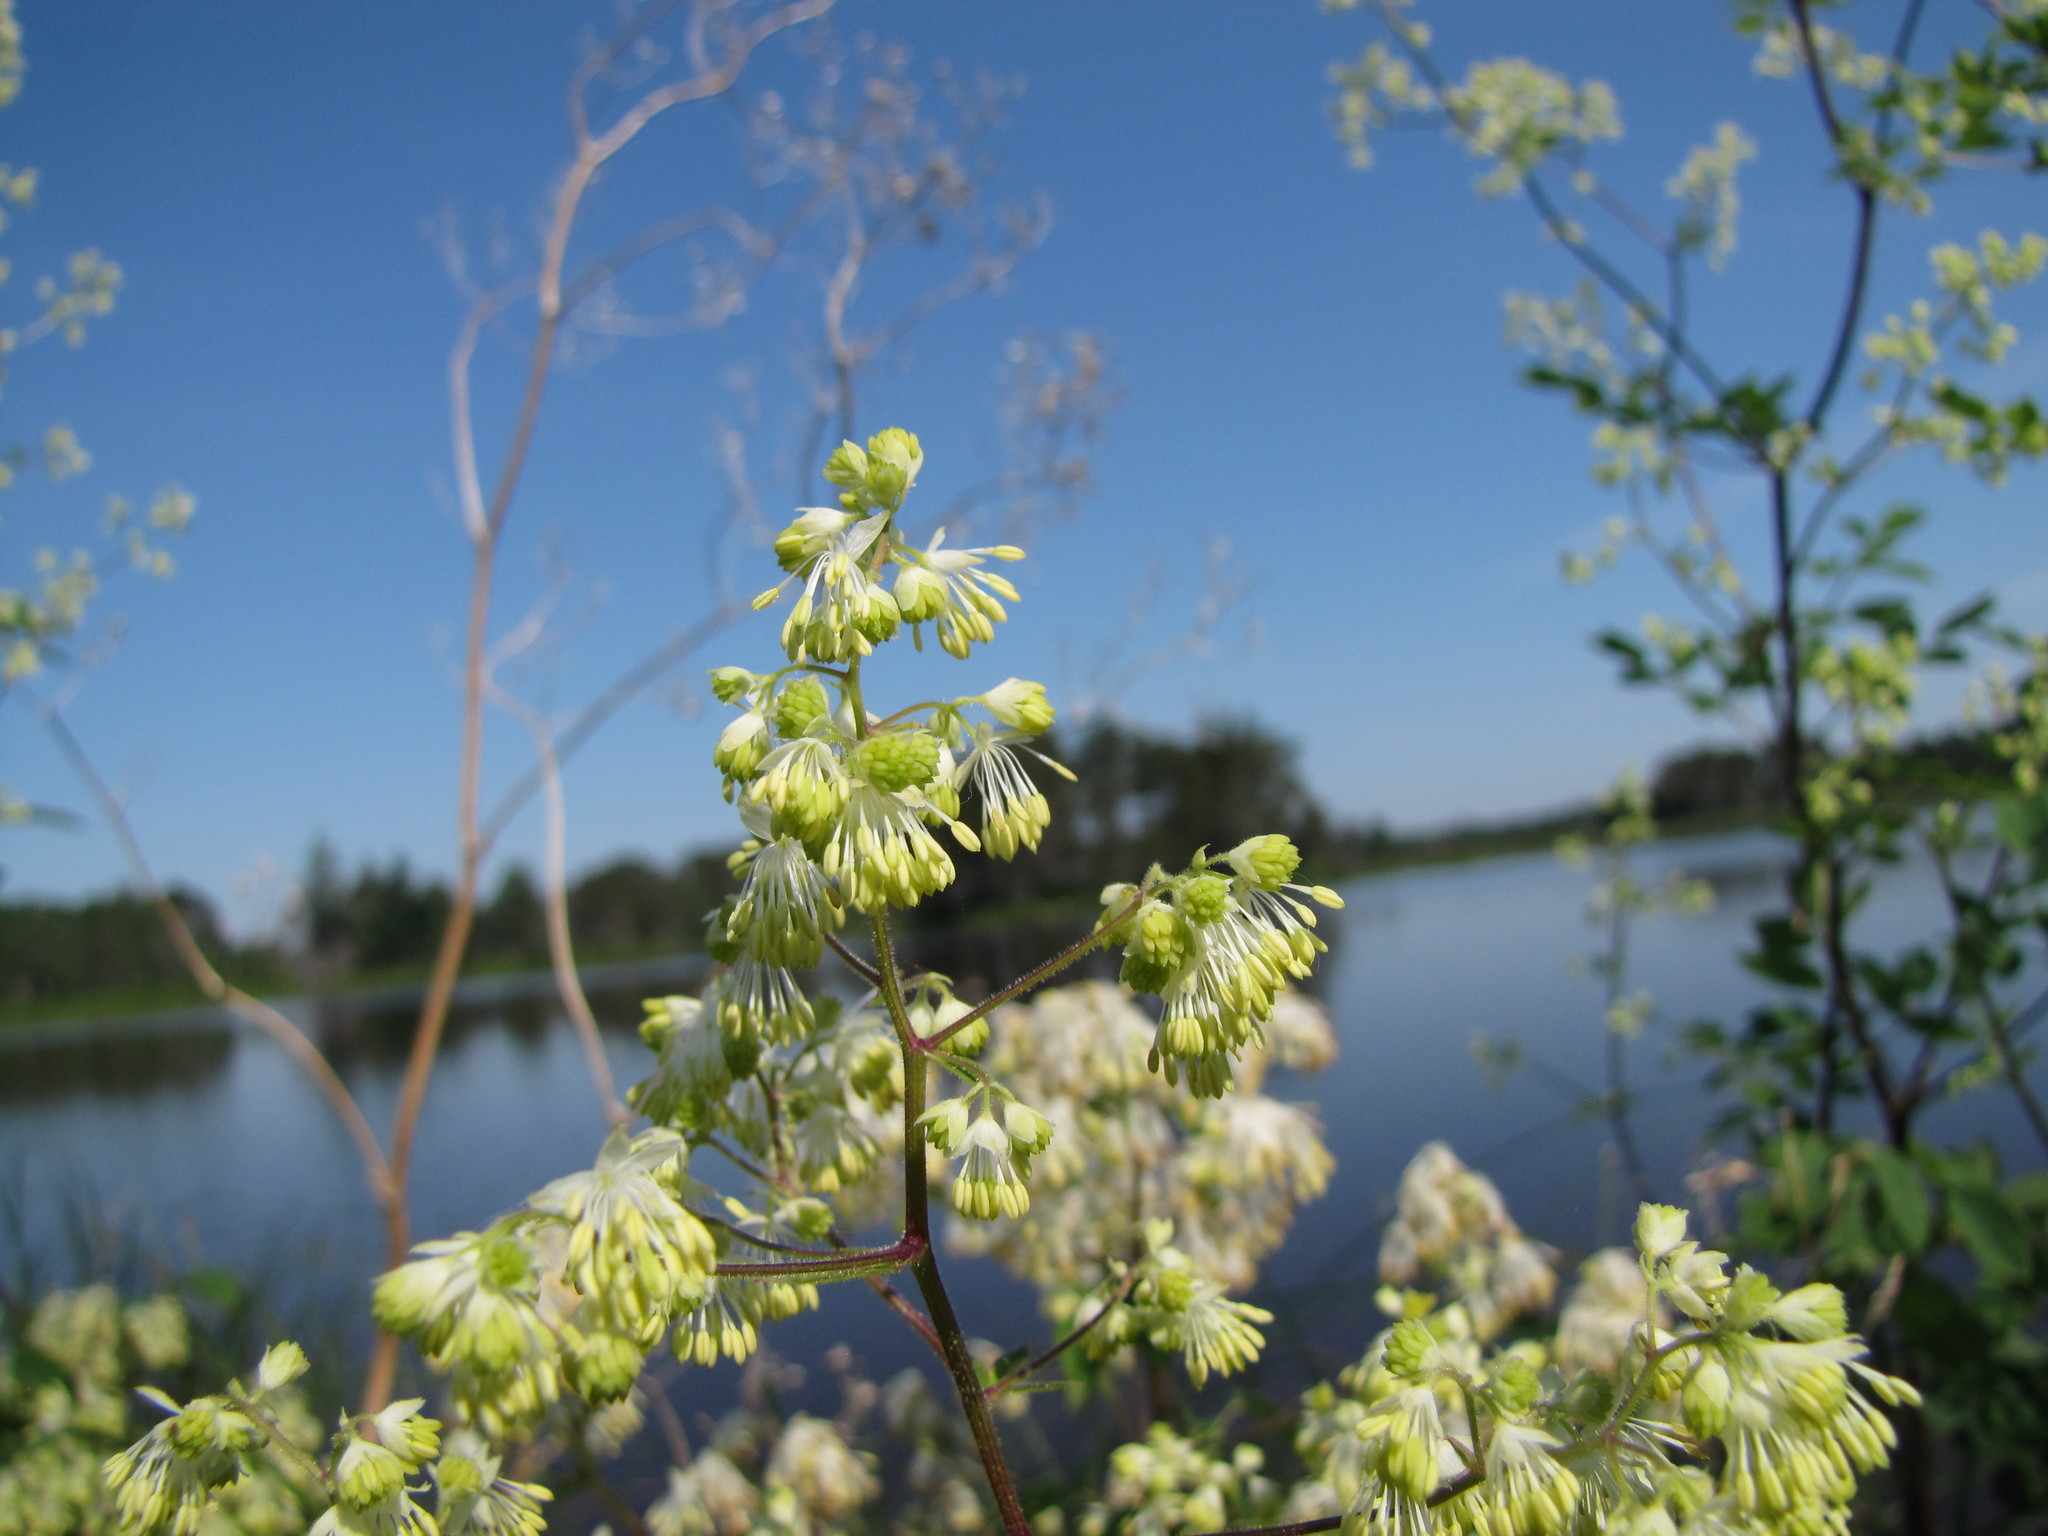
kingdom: Plantae
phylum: Tracheophyta
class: Magnoliopsida
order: Ranunculales
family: Ranunculaceae
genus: Thalictrum
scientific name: Thalictrum dasycarpum
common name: Purple meadow-rue
